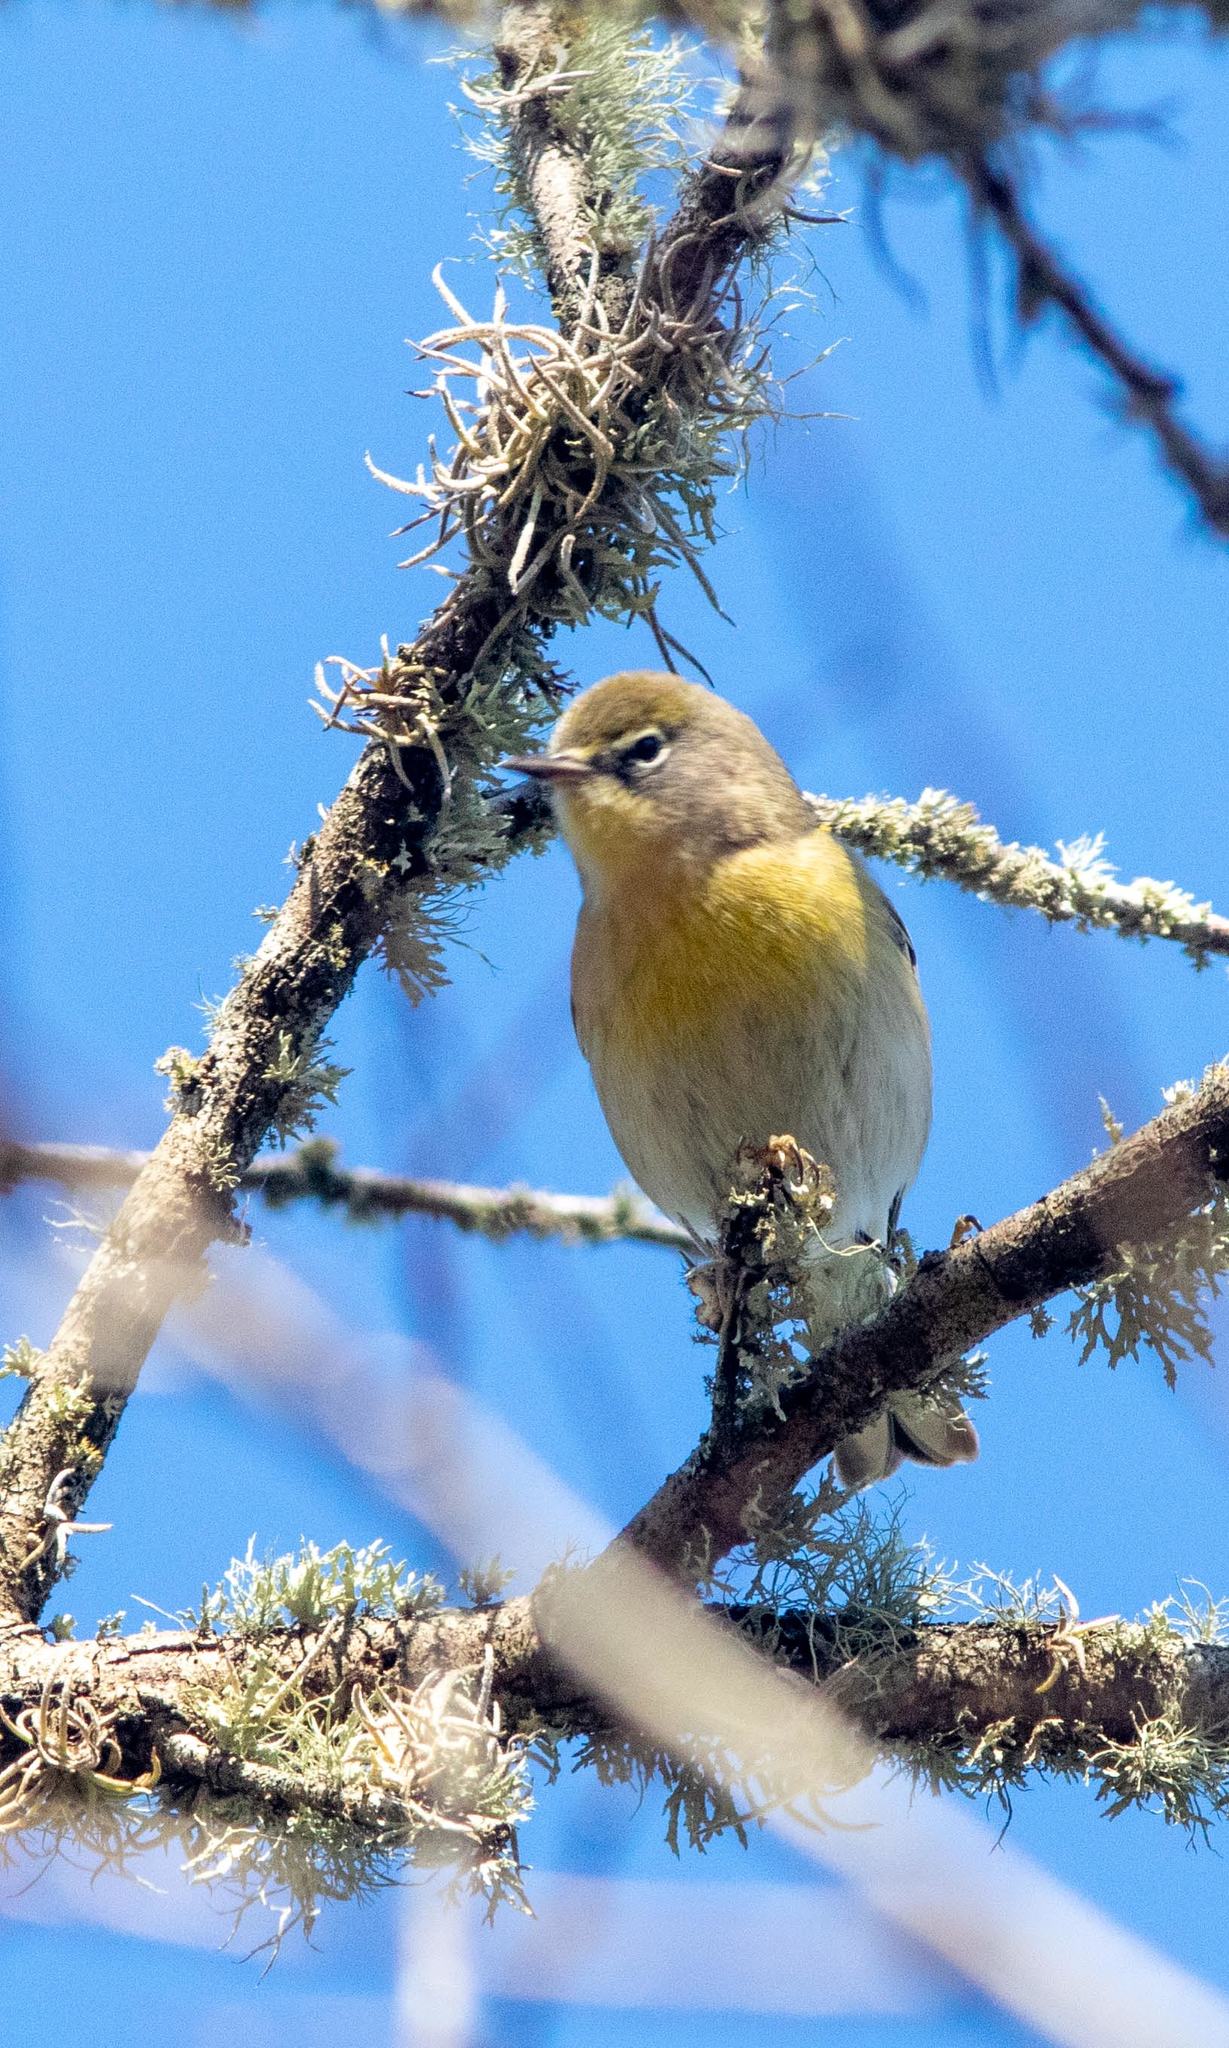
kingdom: Animalia
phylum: Chordata
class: Aves
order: Passeriformes
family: Parulidae
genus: Setophaga
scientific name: Setophaga pinus
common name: Pine warbler
